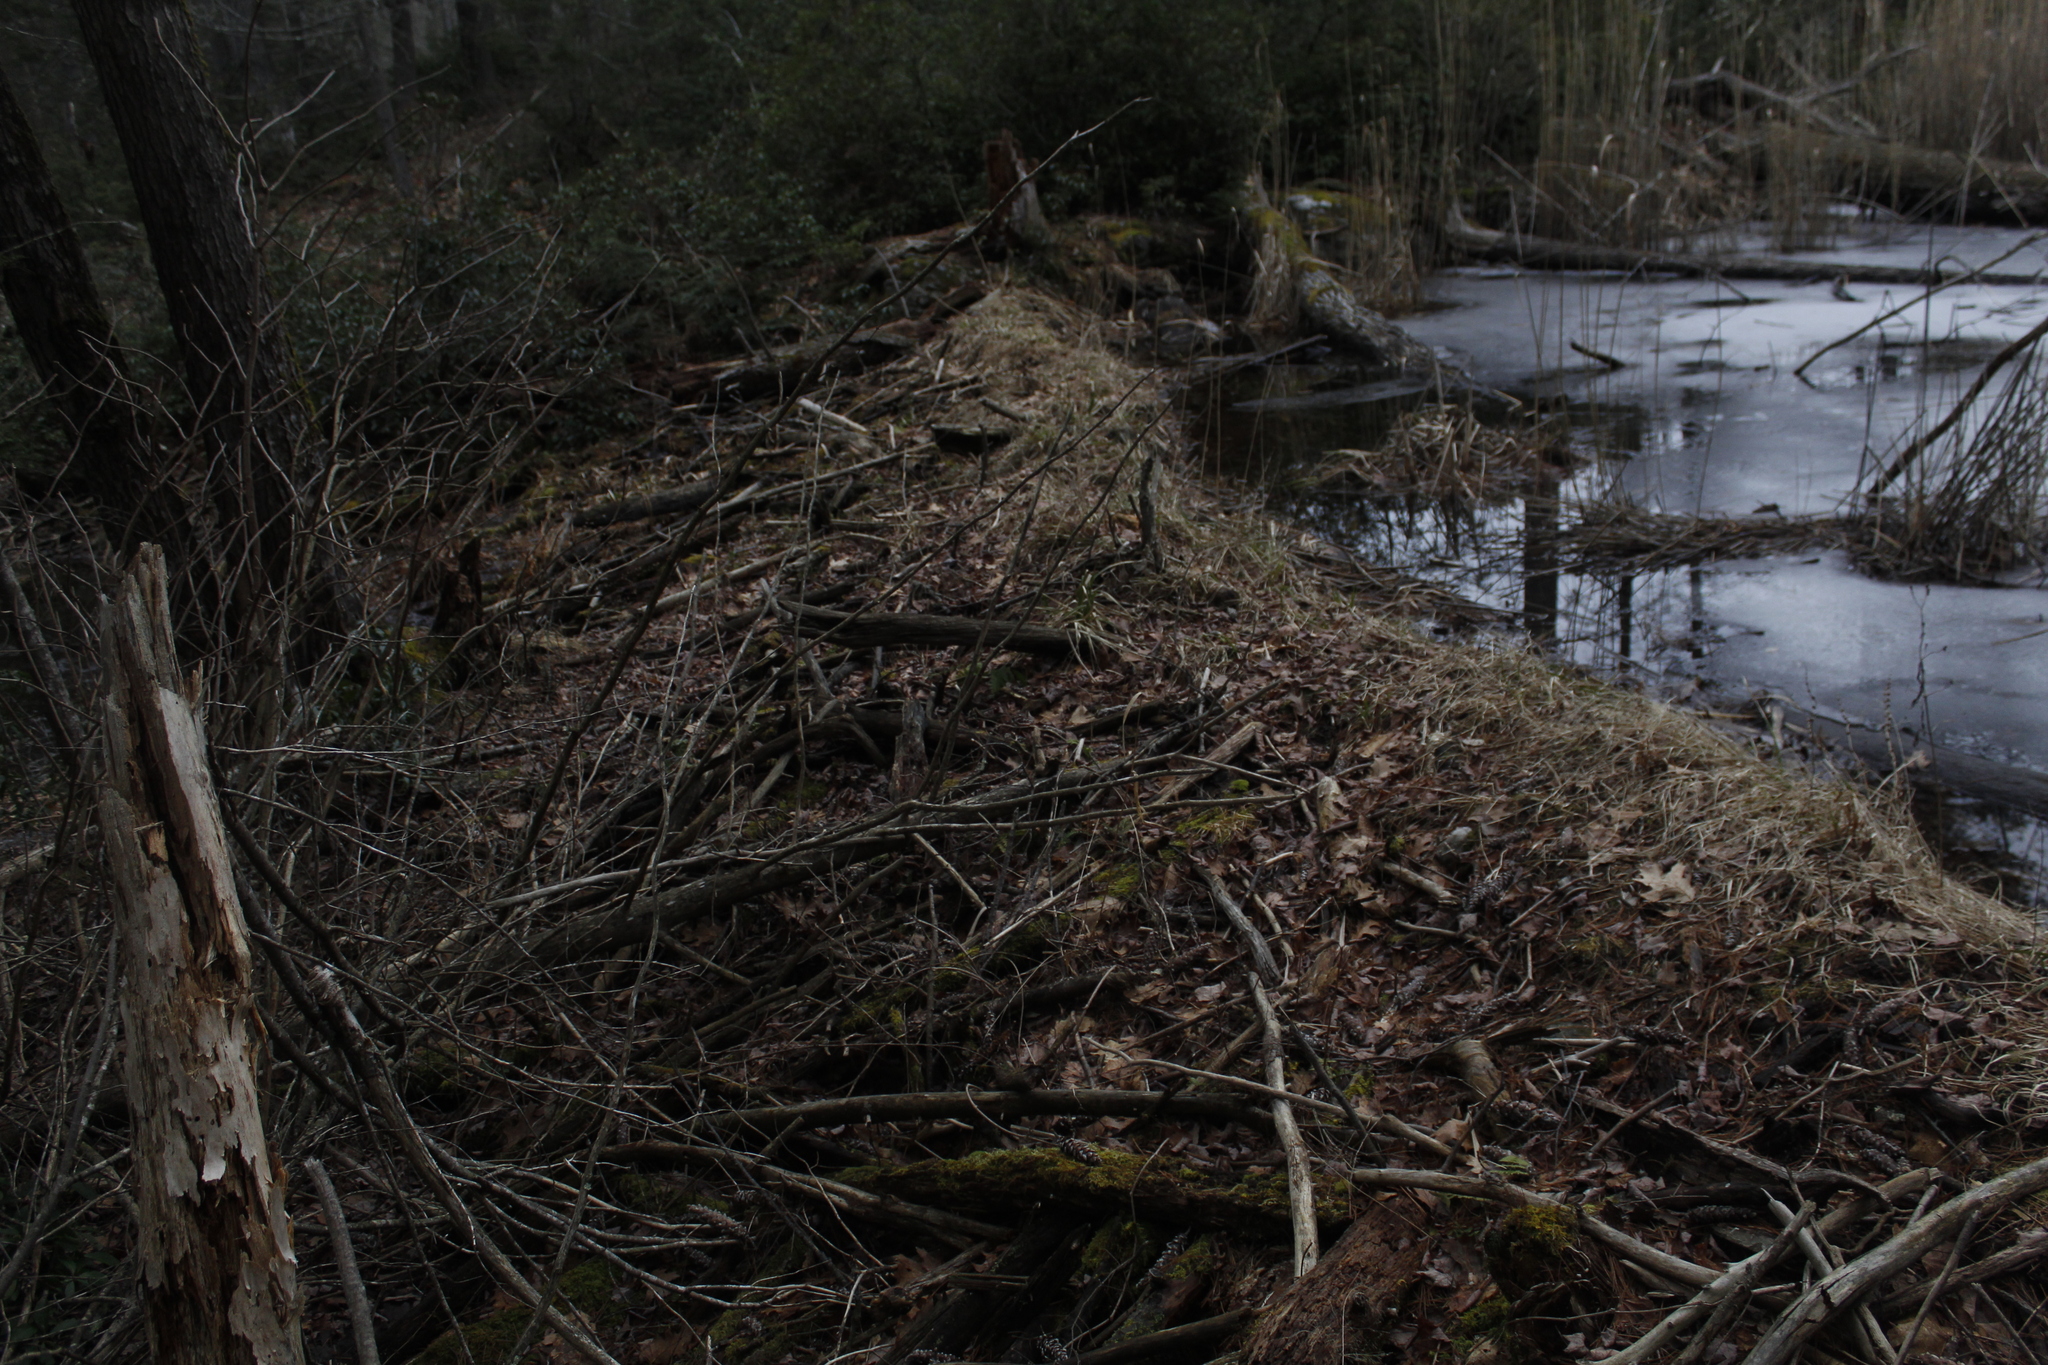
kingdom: Animalia
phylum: Chordata
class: Mammalia
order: Rodentia
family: Castoridae
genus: Castor
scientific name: Castor canadensis
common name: American beaver
